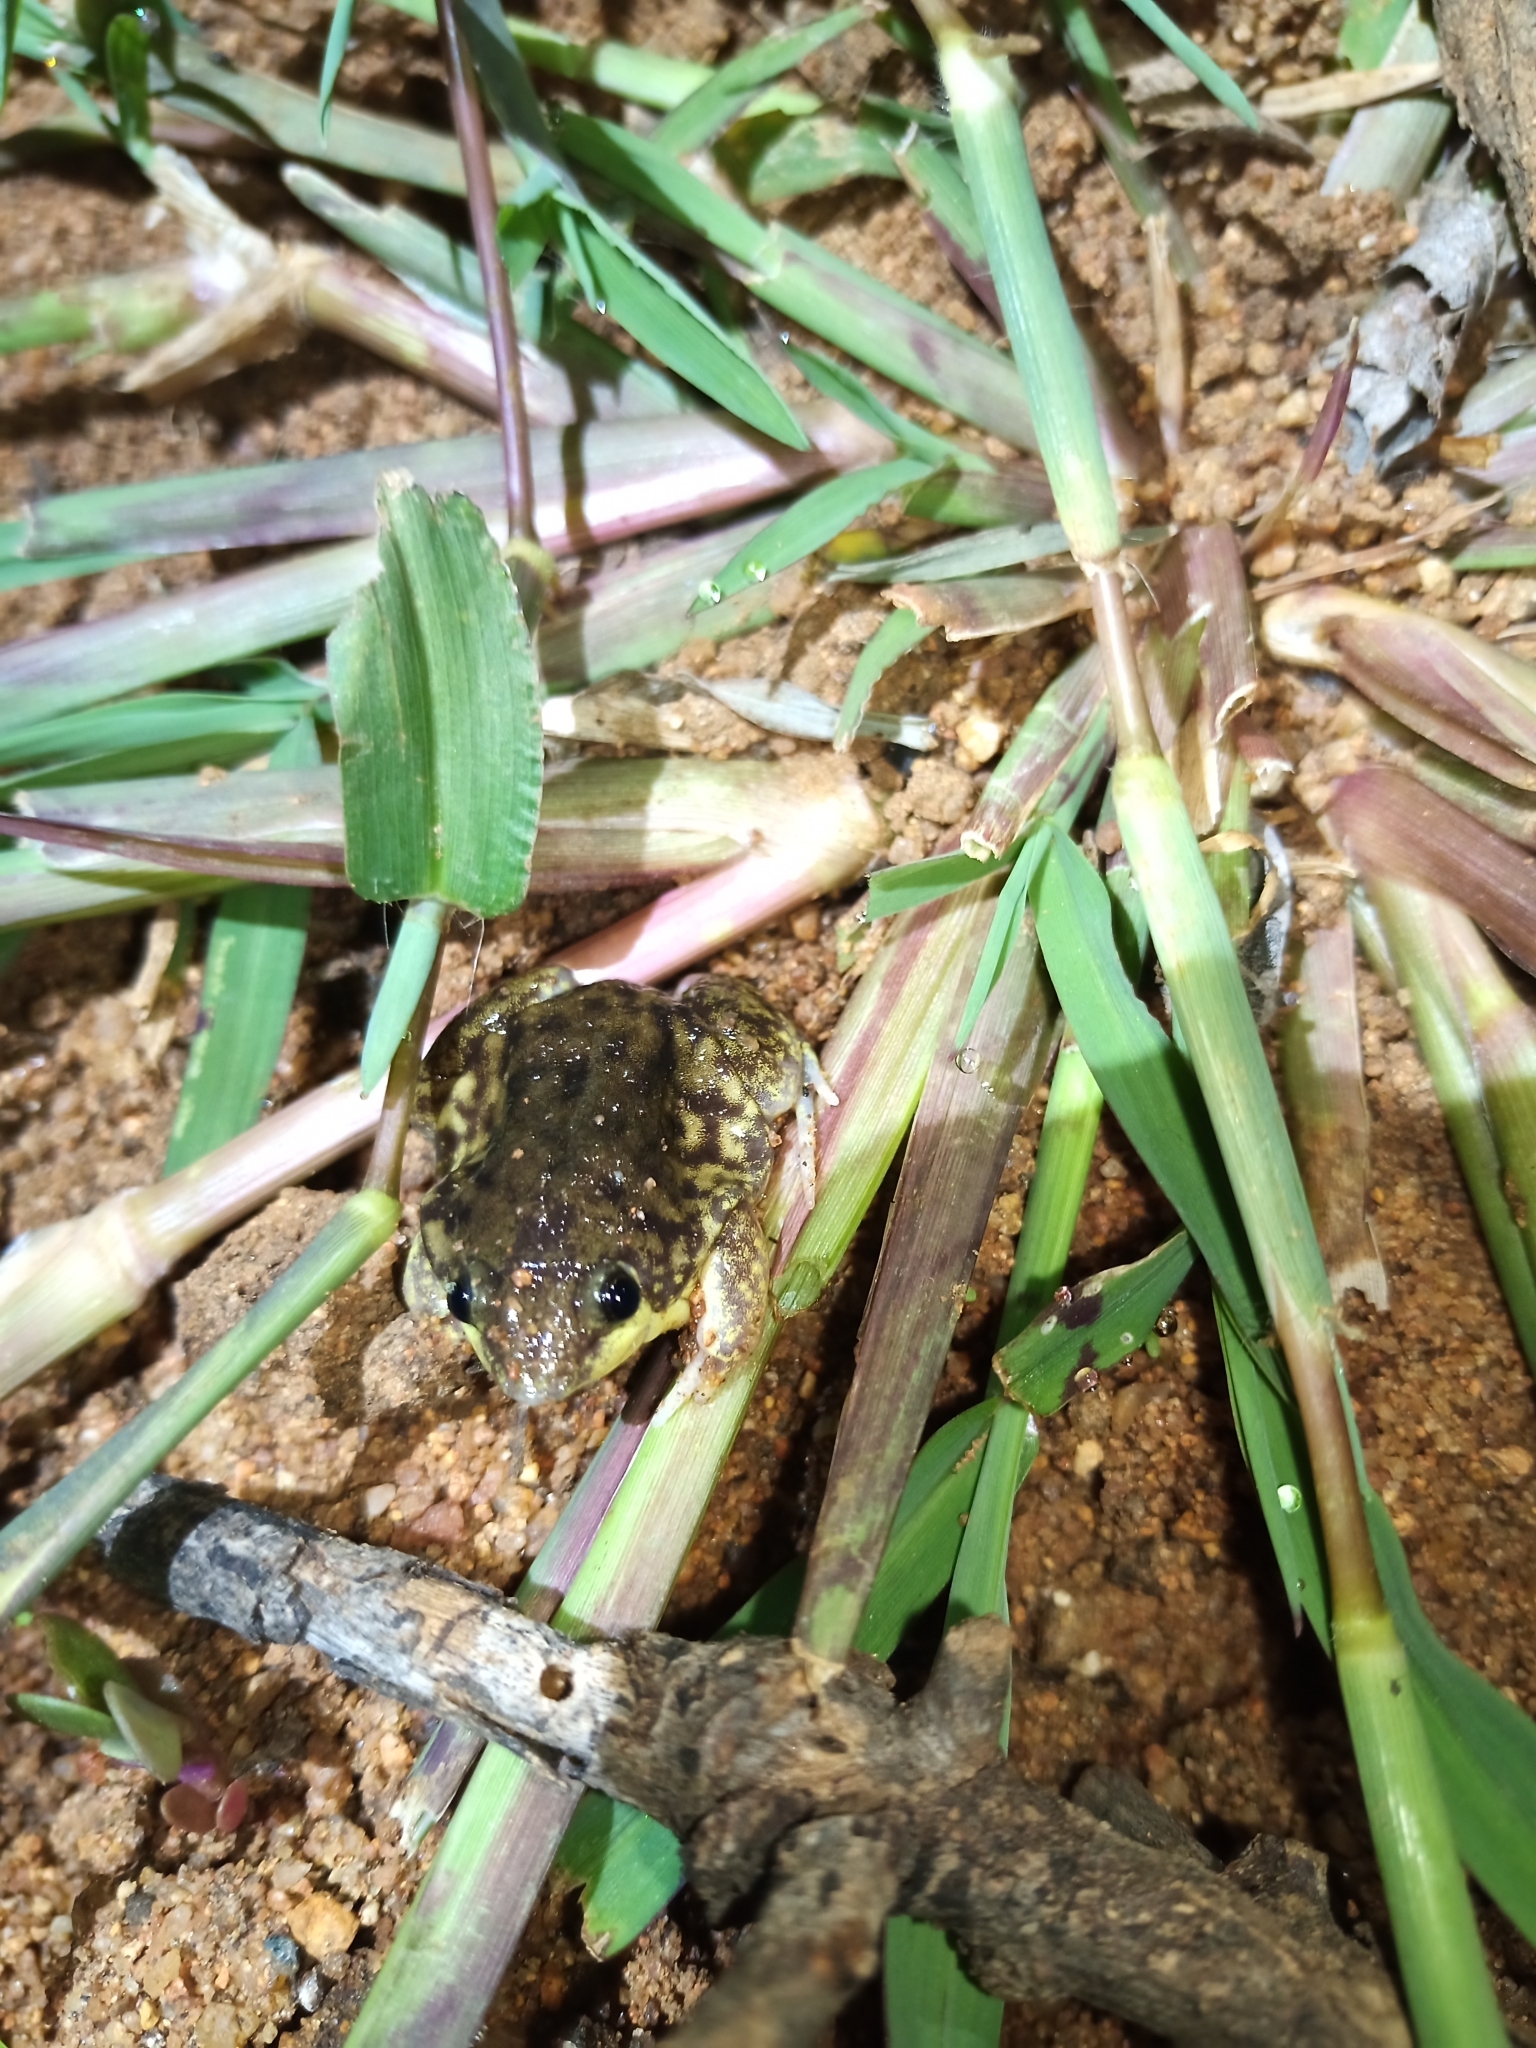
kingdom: Animalia
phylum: Chordata
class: Amphibia
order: Anura
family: Hemisotidae
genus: Hemisus
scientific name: Hemisus marmoratus
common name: Mottled shovel-nosed frog
